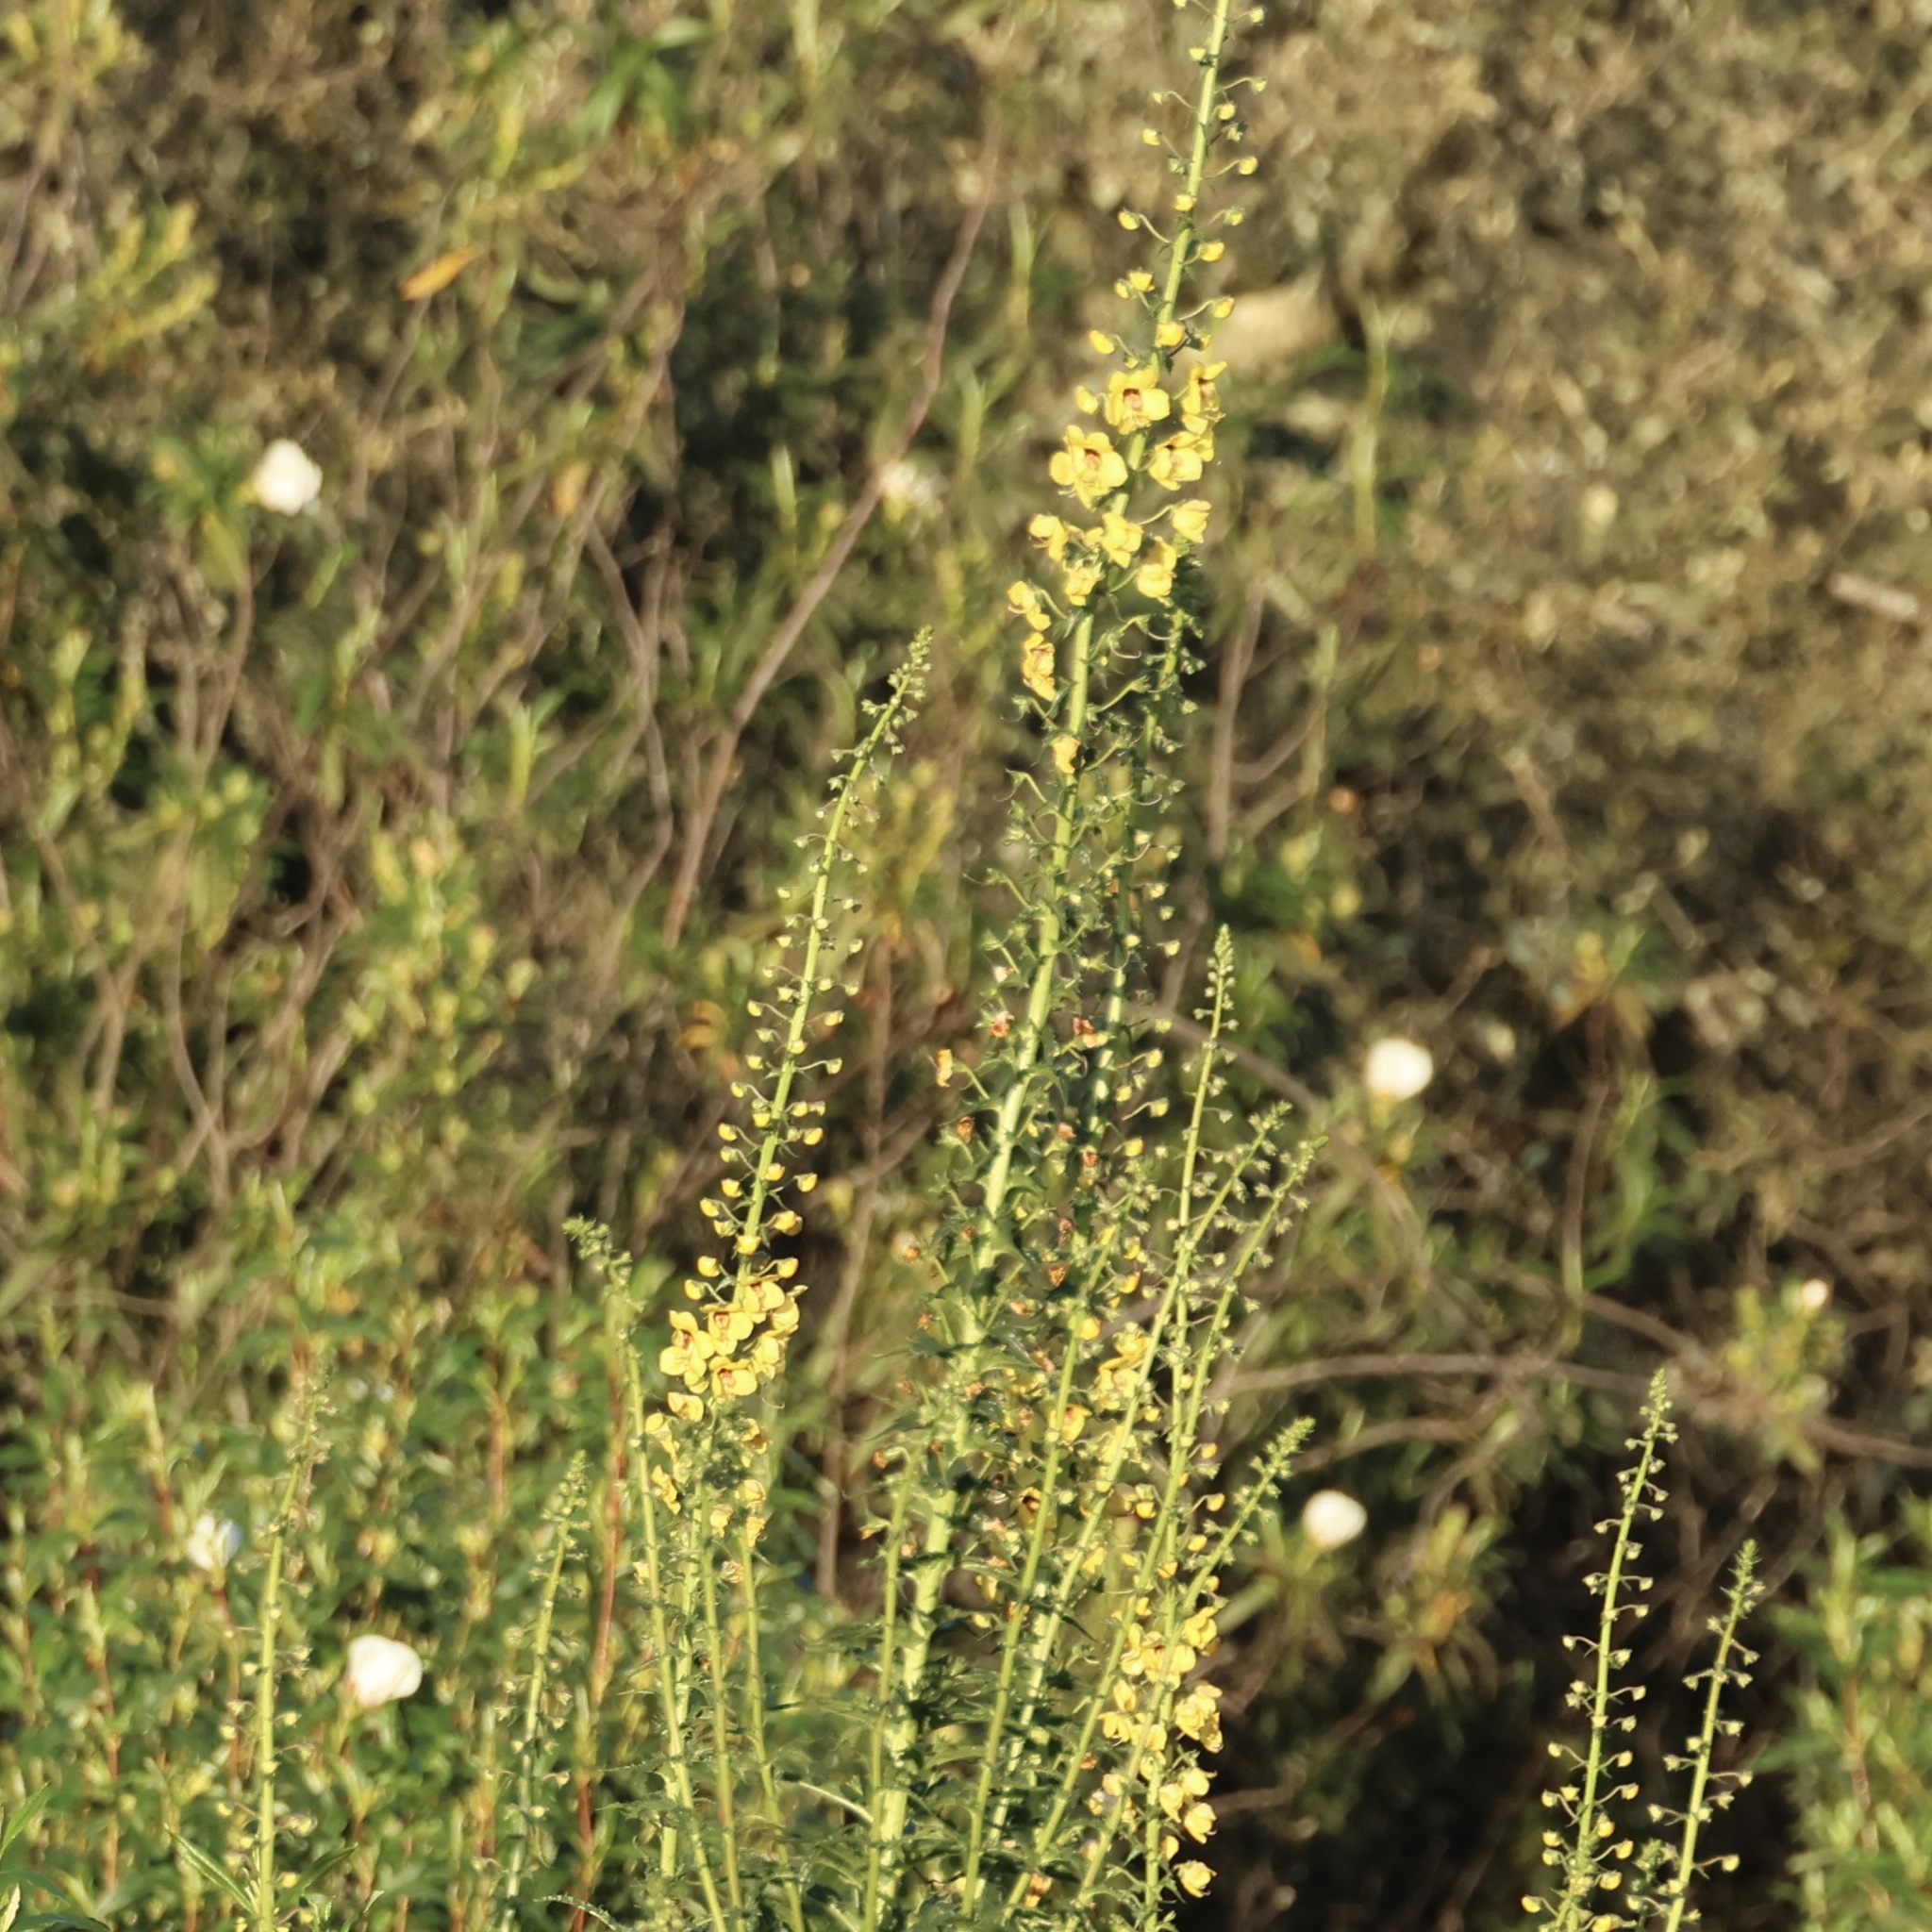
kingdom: Plantae
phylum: Tracheophyta
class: Magnoliopsida
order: Lamiales
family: Scrophulariaceae
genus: Verbascum
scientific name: Verbascum barnadesii
